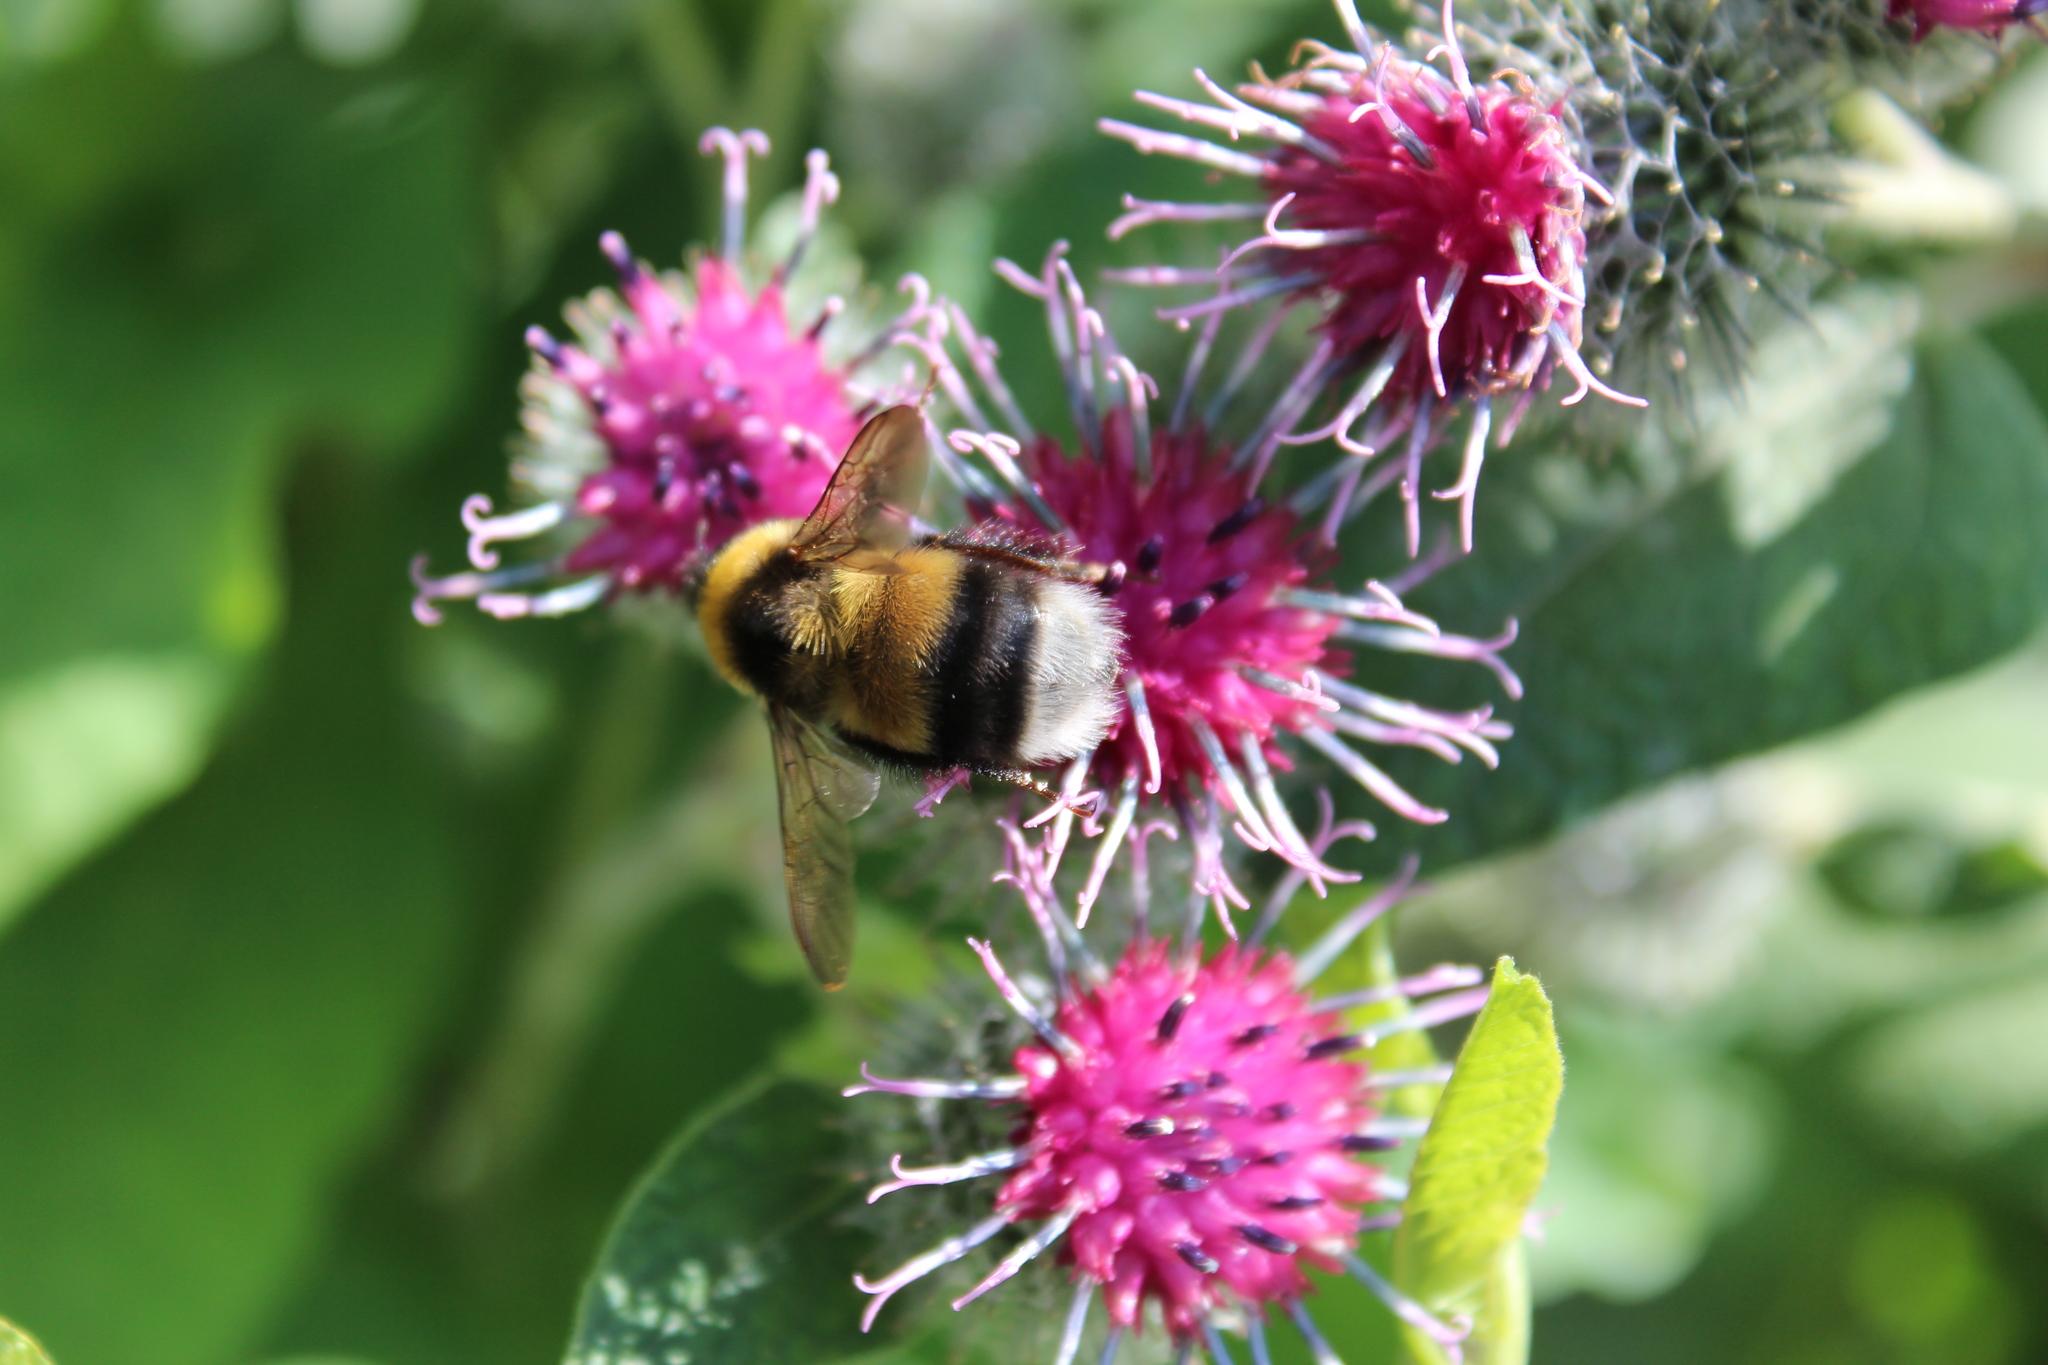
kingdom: Animalia
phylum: Arthropoda
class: Insecta
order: Hymenoptera
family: Apidae
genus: Bombus
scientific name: Bombus sporadicus
